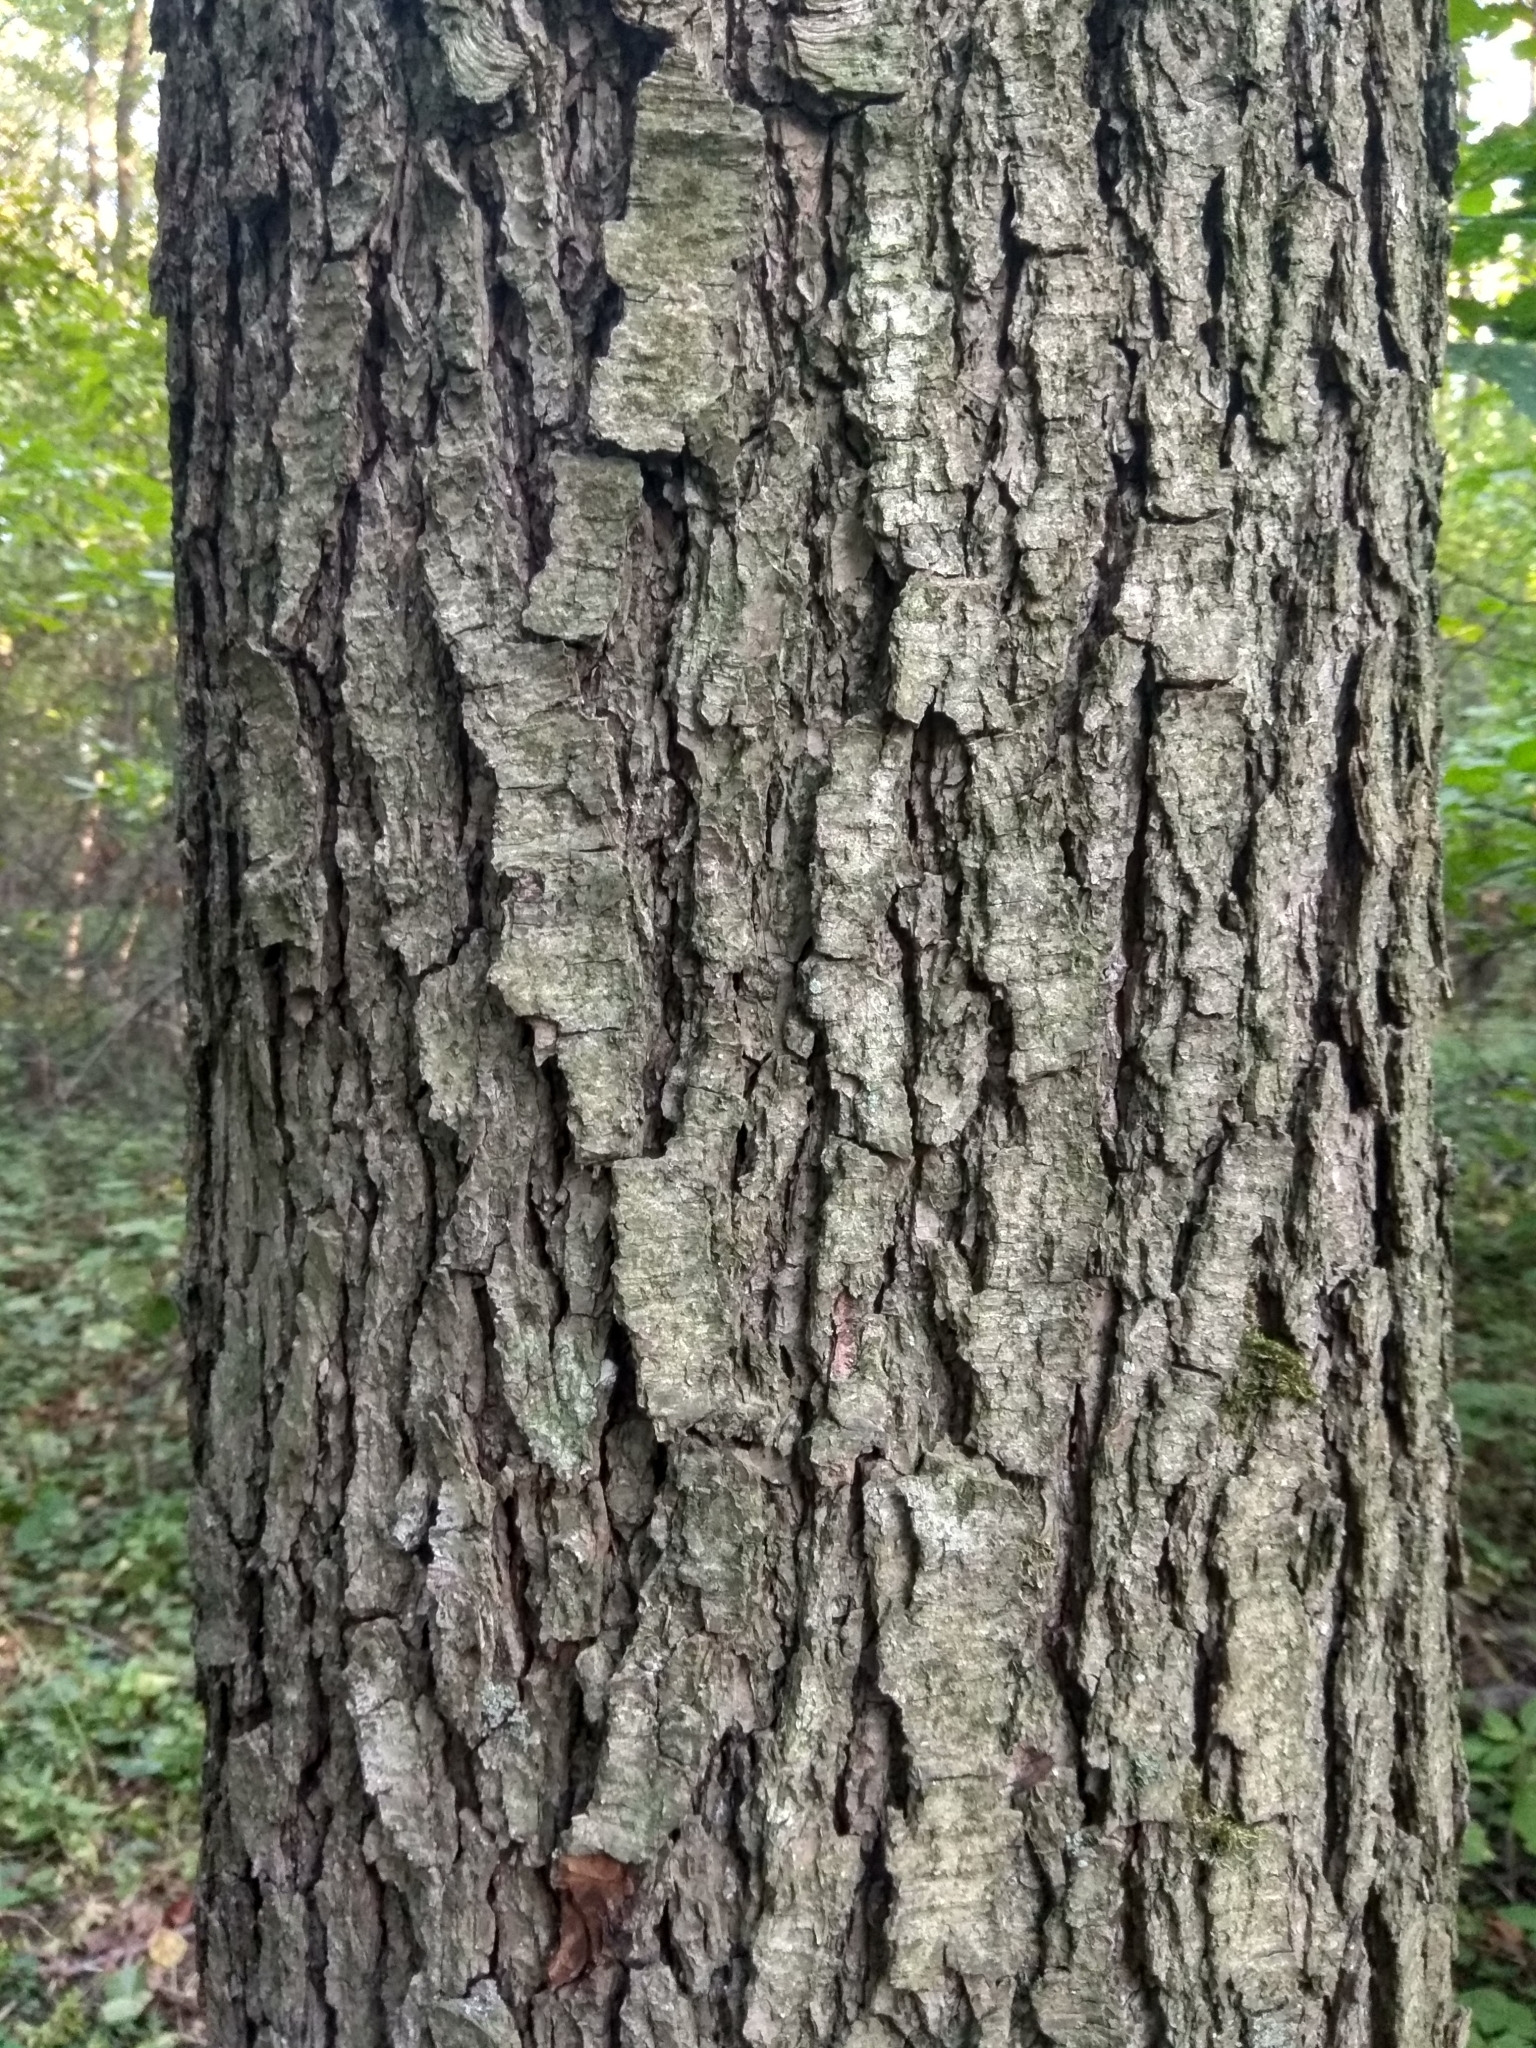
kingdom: Plantae
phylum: Tracheophyta
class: Magnoliopsida
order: Fagales
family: Betulaceae
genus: Alnus
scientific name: Alnus incana
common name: Grey alder
